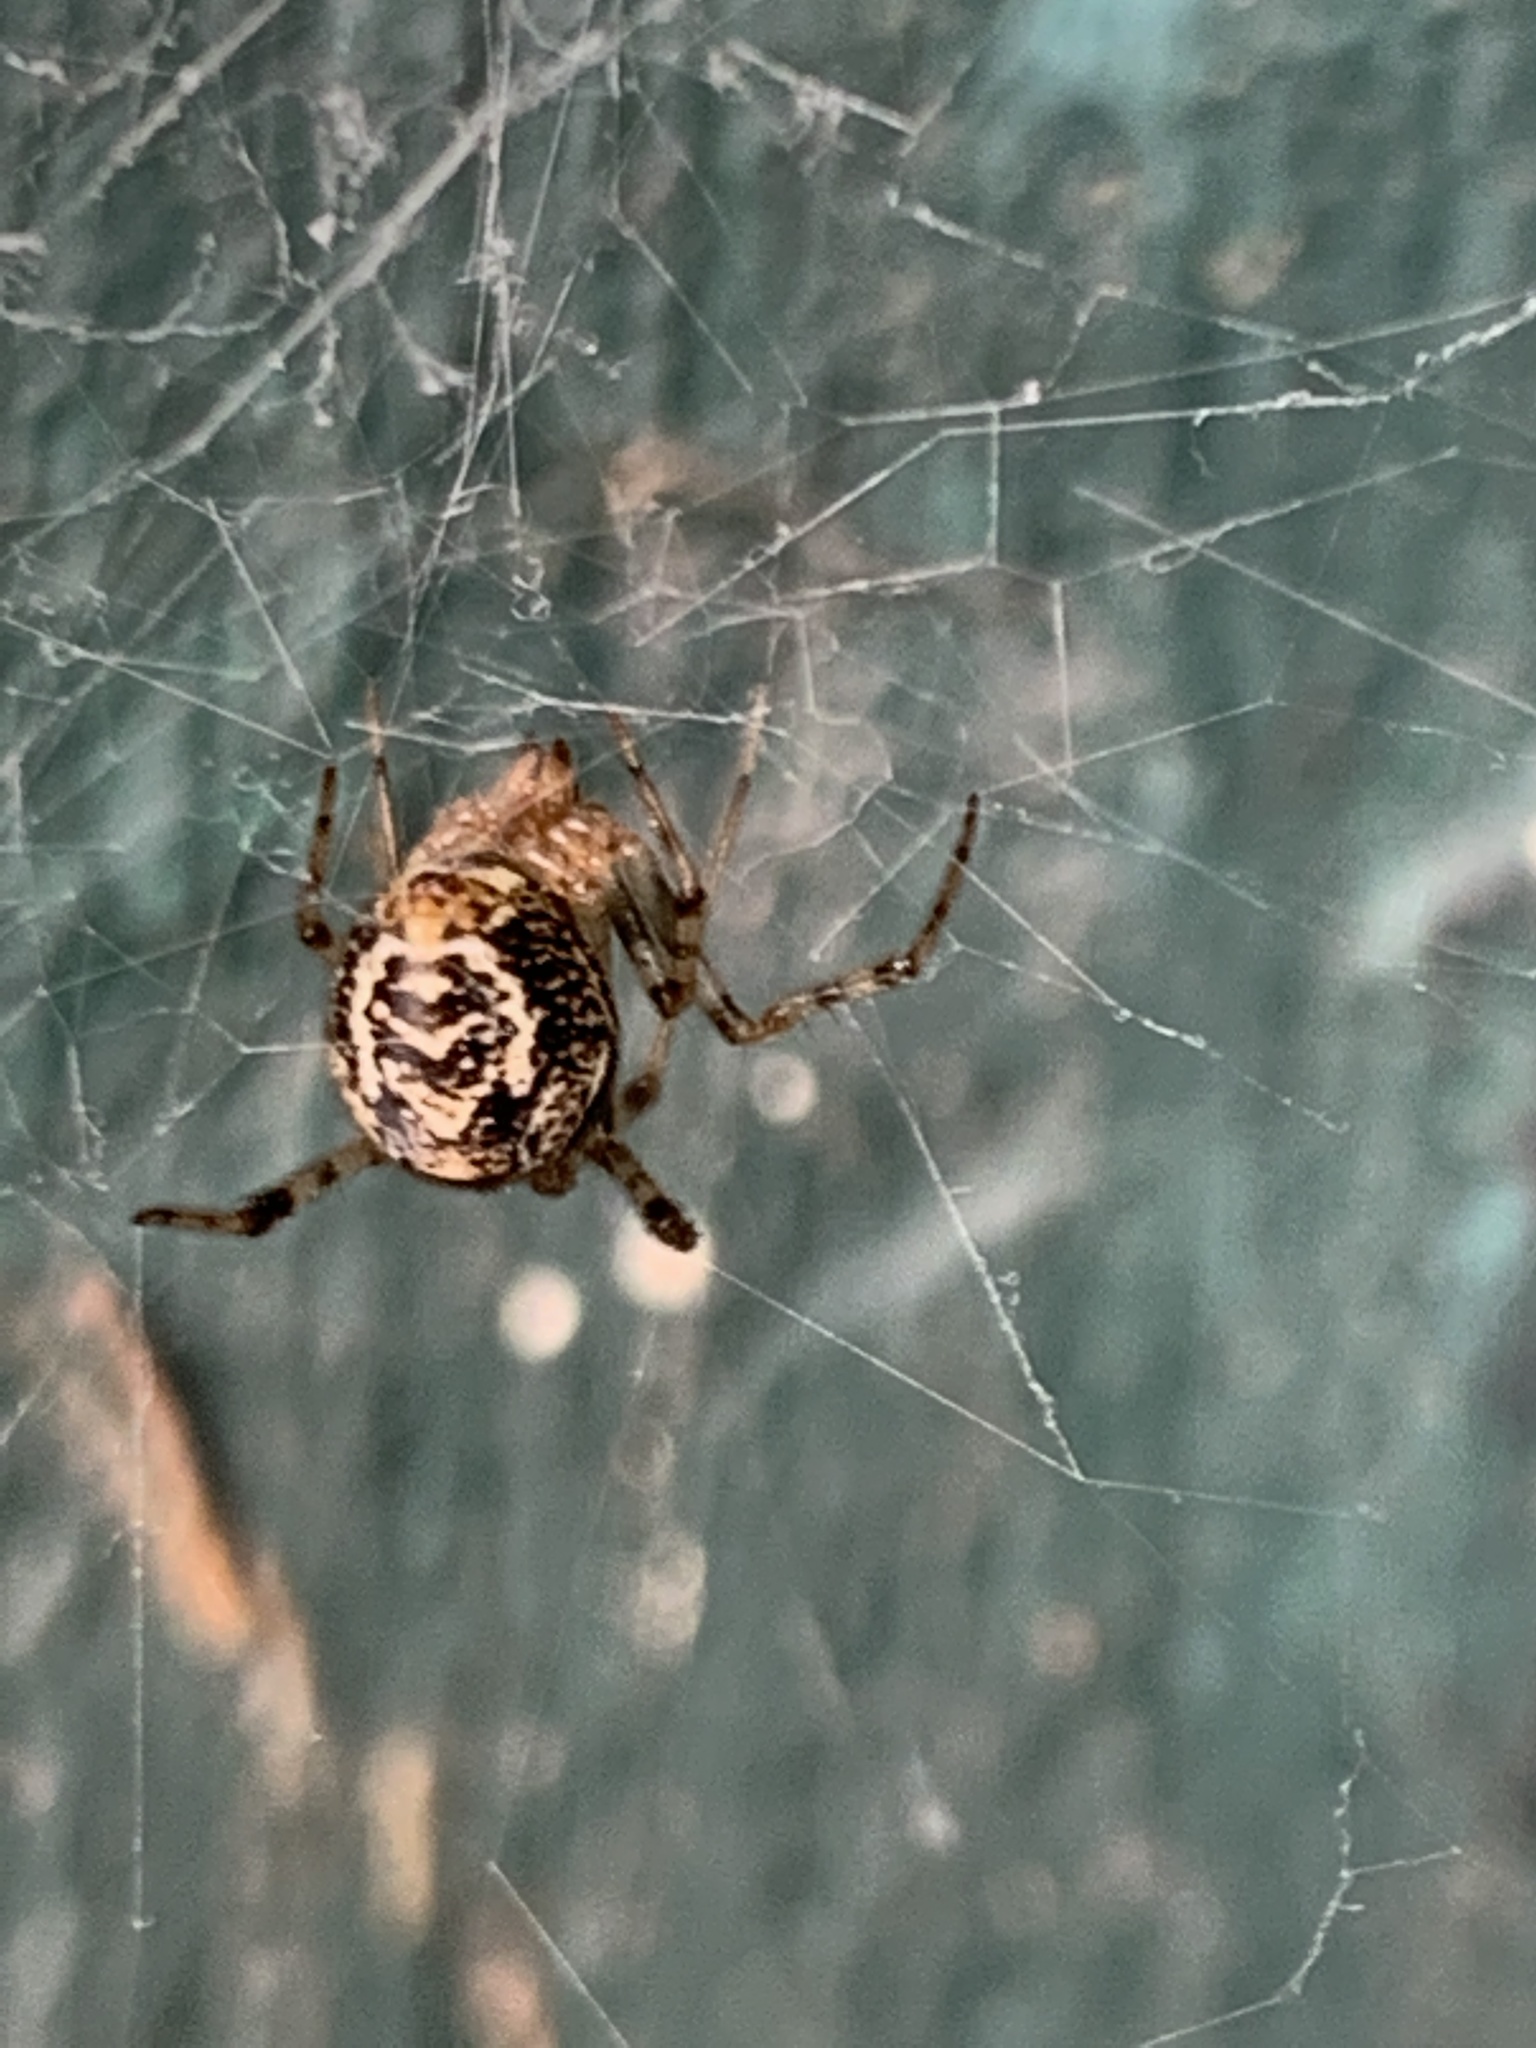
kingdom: Animalia
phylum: Arthropoda
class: Arachnida
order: Araneae
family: Theridiidae
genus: Parasteatoda
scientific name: Parasteatoda tepidariorum
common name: Common house spider
